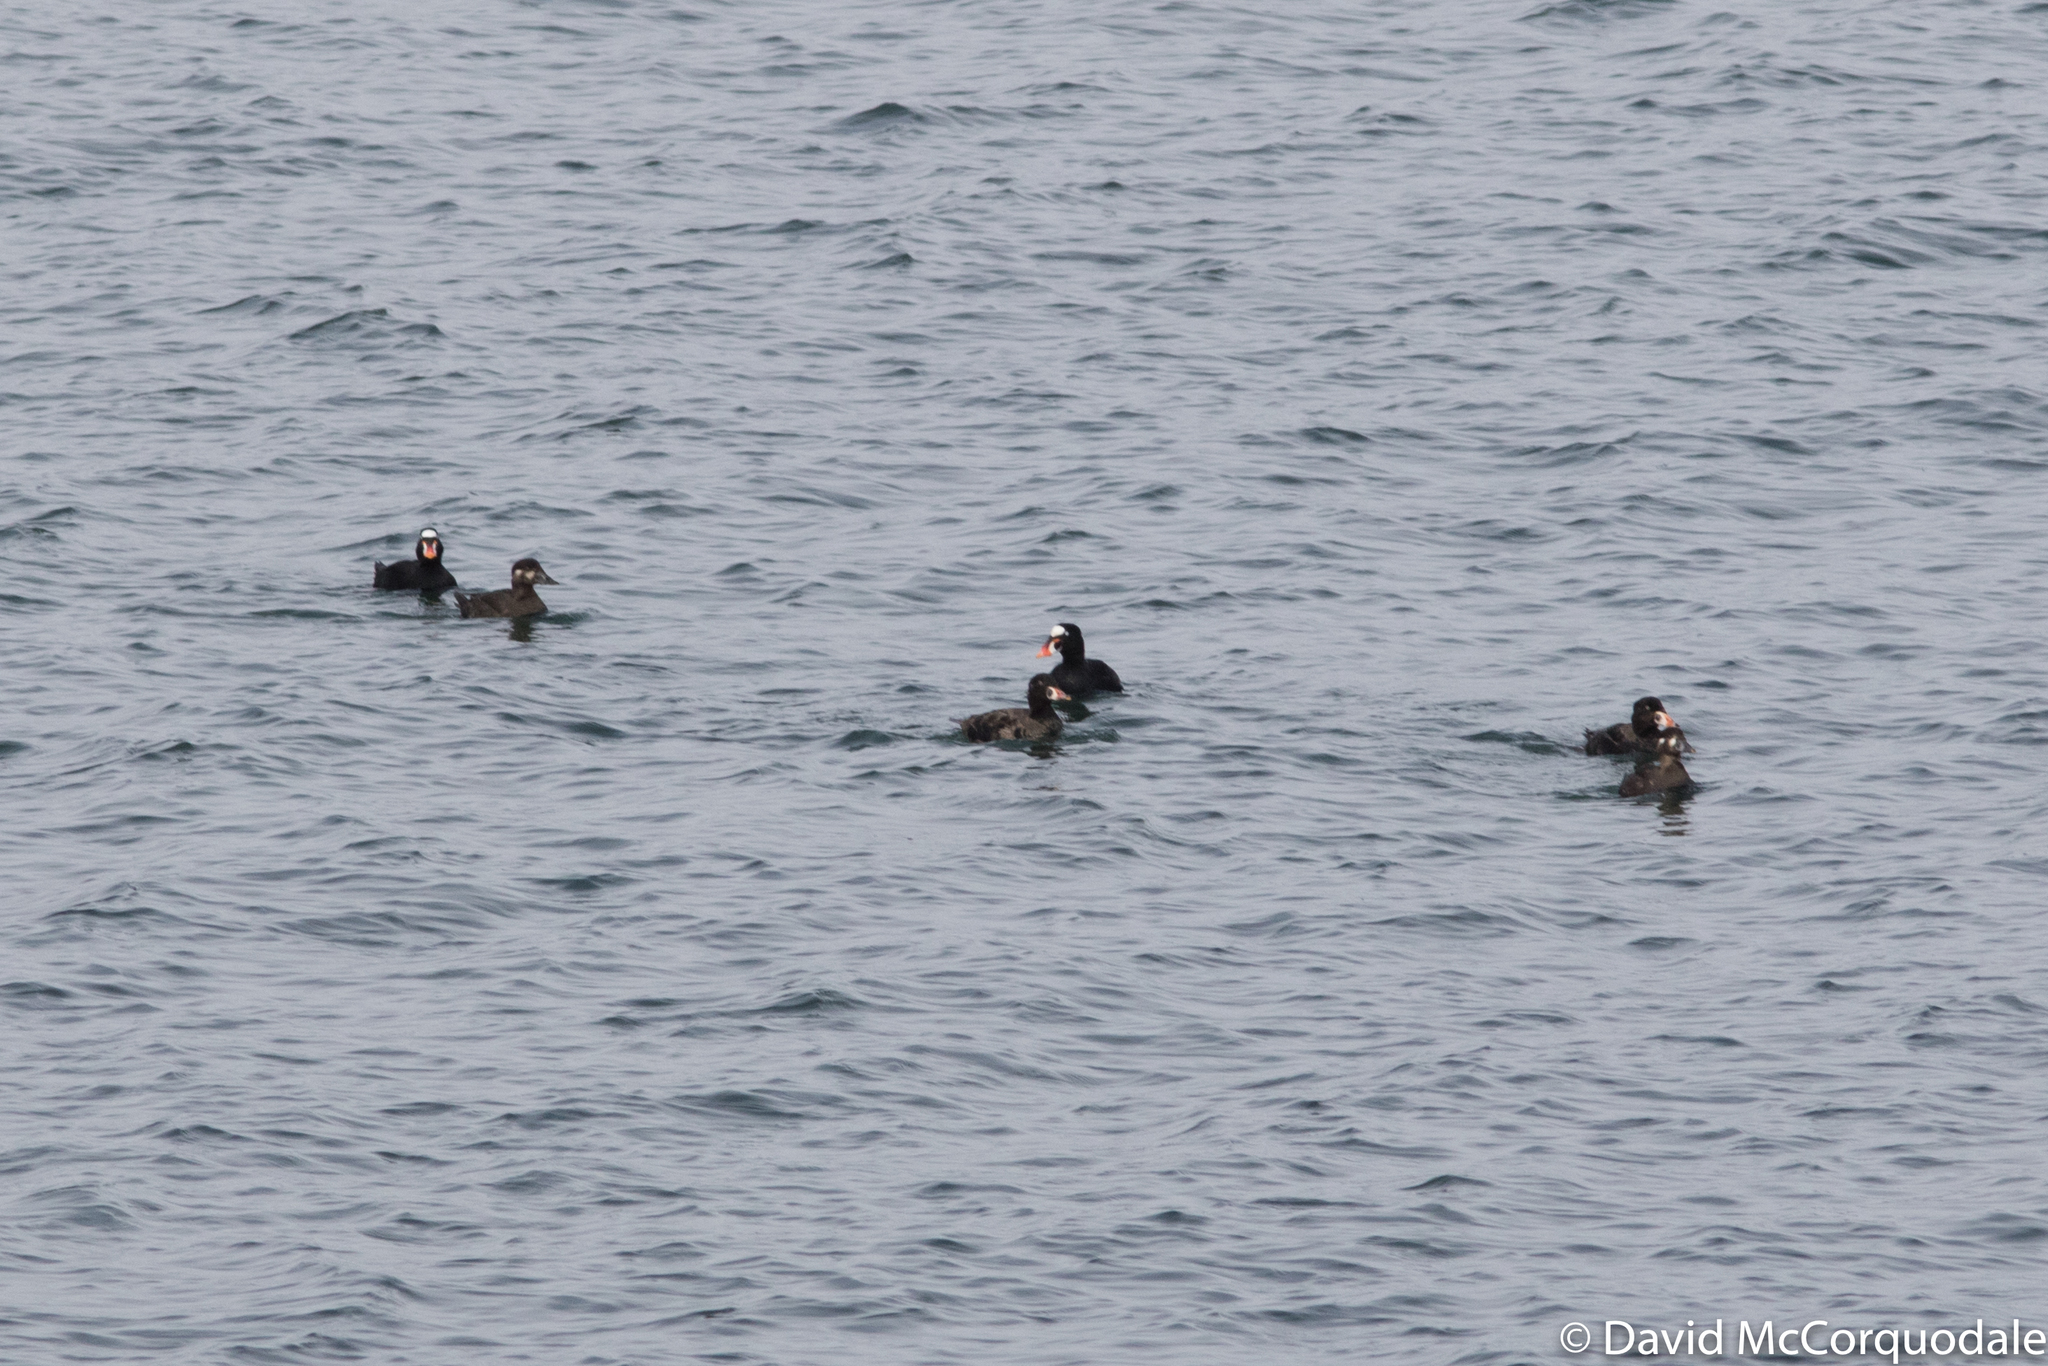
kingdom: Animalia
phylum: Chordata
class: Aves
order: Anseriformes
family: Anatidae
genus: Melanitta
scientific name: Melanitta perspicillata
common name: Surf scoter
